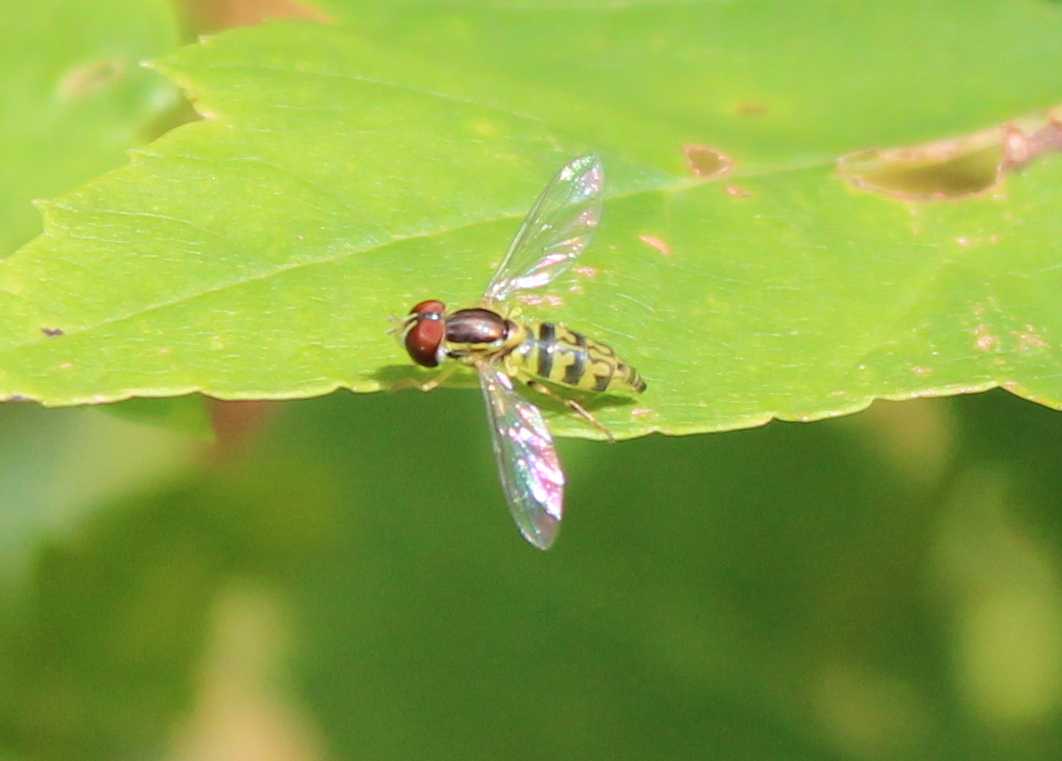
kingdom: Animalia
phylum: Arthropoda
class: Insecta
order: Diptera
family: Syrphidae
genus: Toxomerus
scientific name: Toxomerus geminatus
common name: Eastern calligrapher
